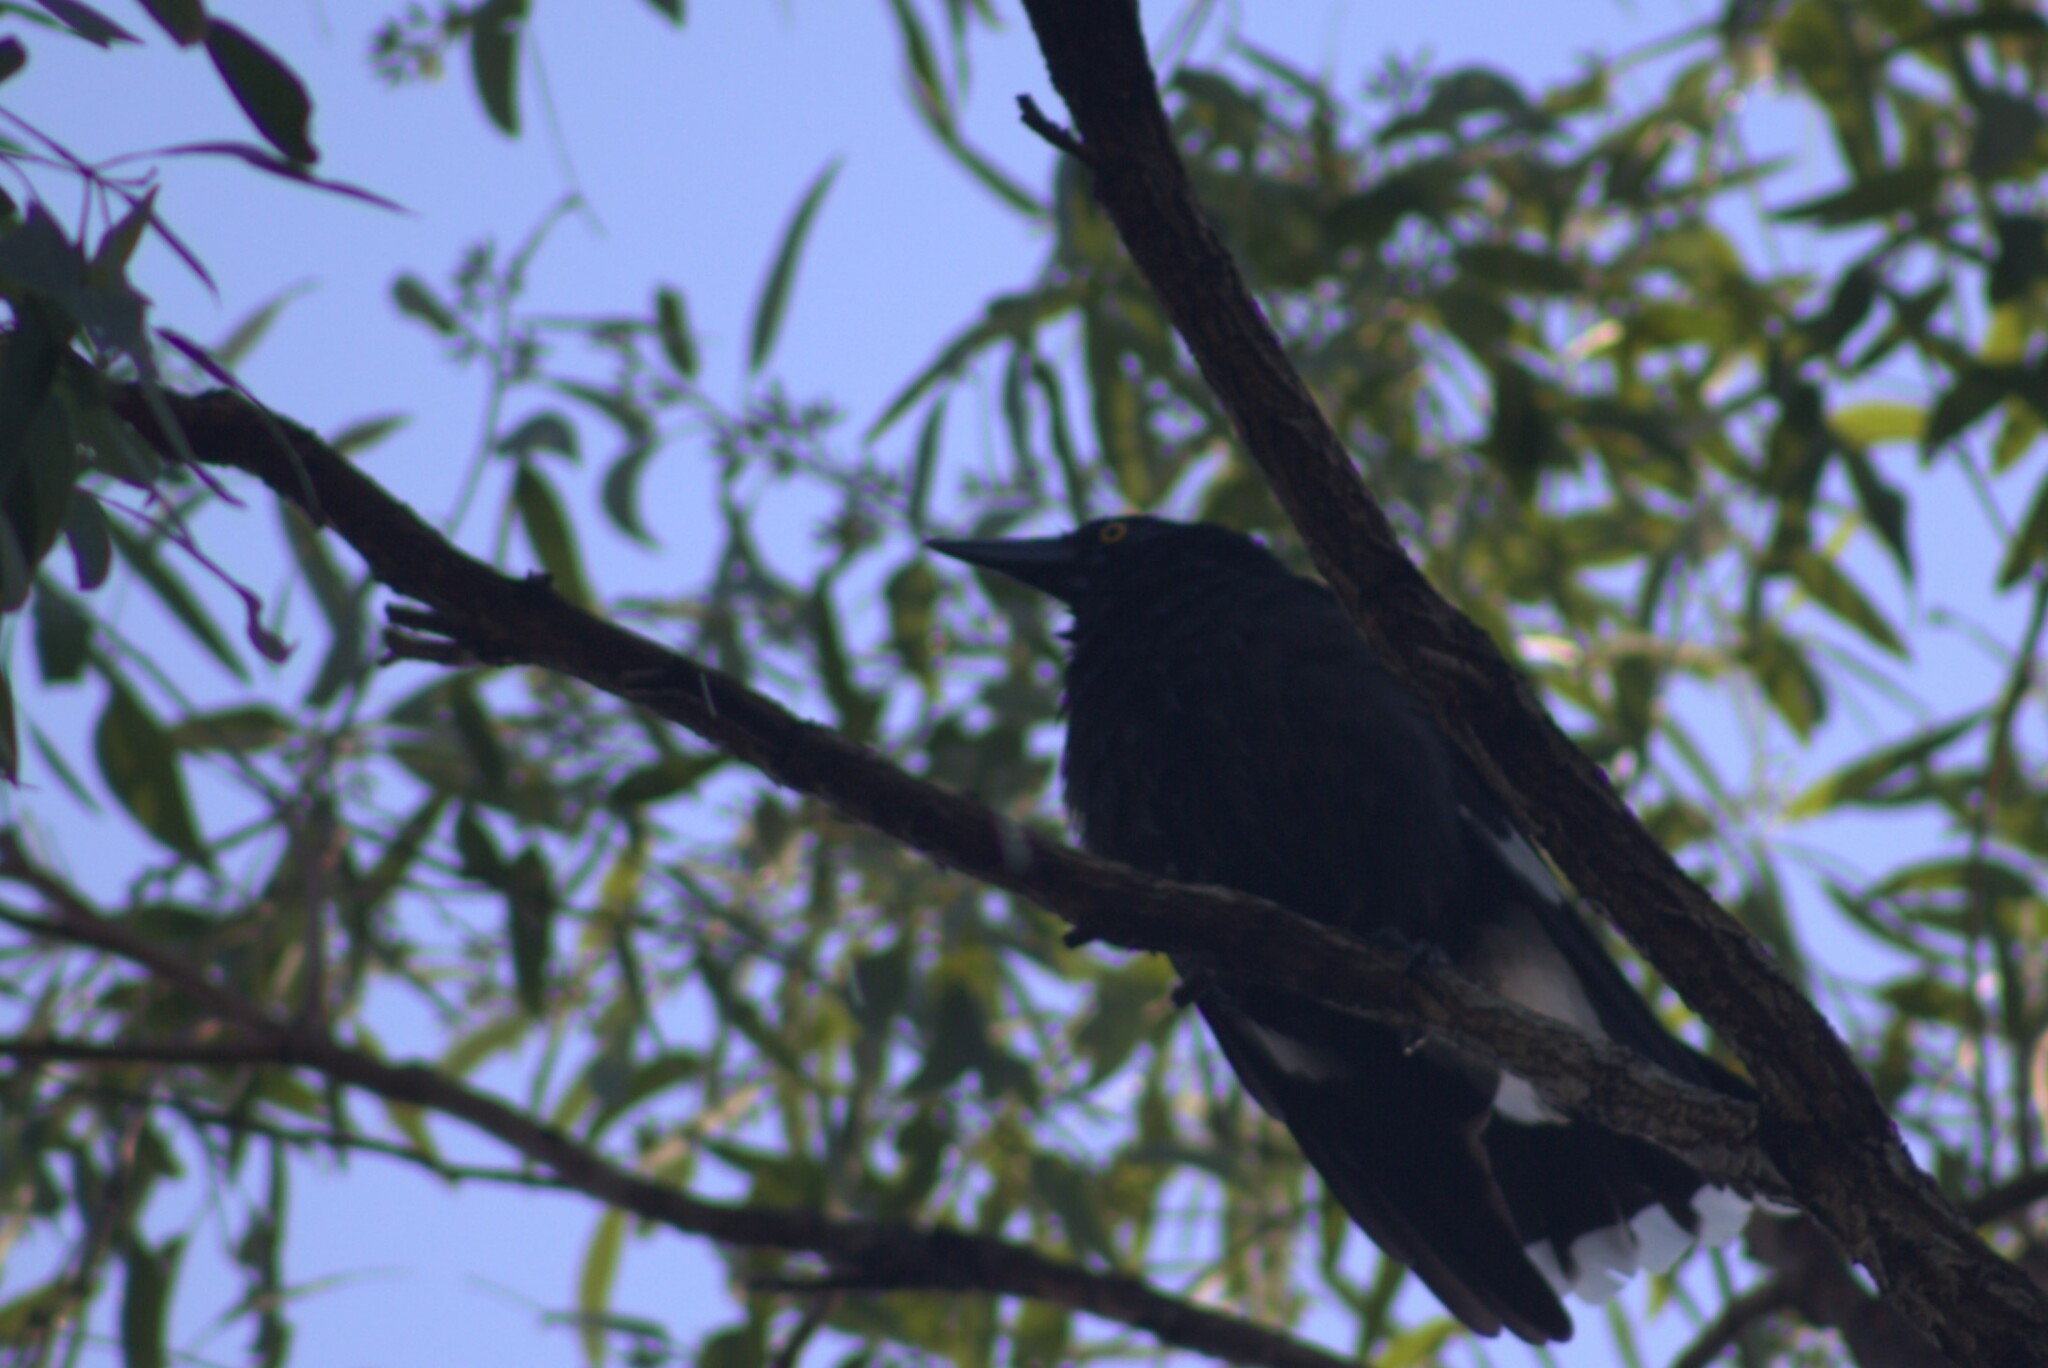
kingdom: Animalia
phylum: Chordata
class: Aves
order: Passeriformes
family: Cracticidae
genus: Strepera
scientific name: Strepera graculina
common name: Pied currawong
